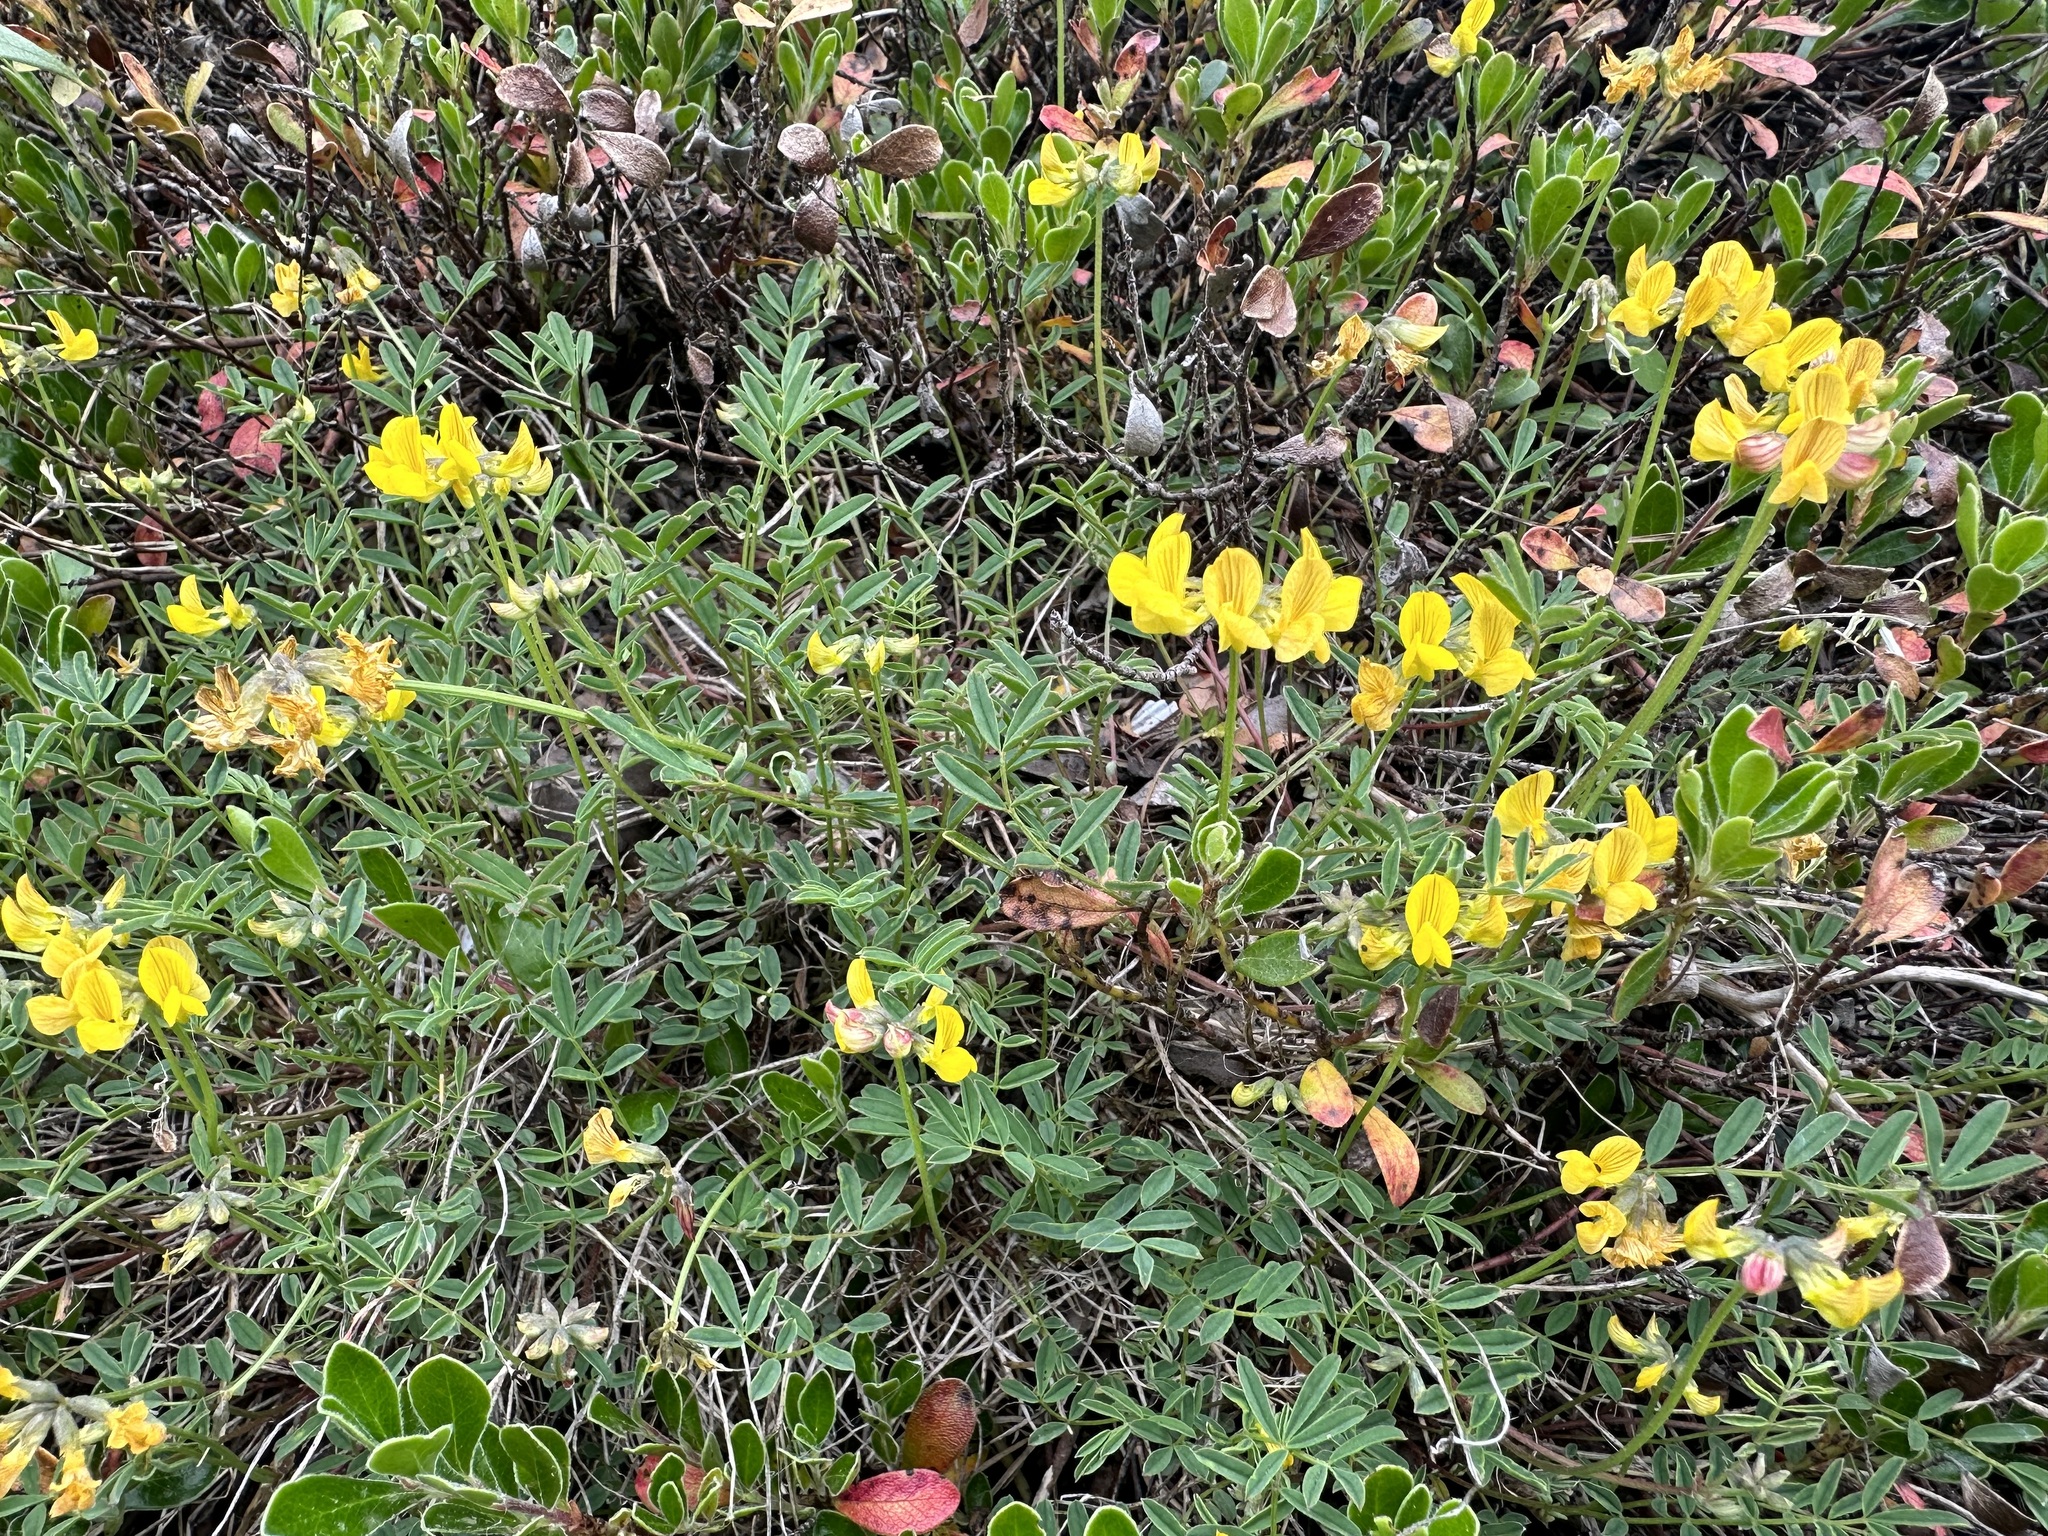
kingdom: Plantae
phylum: Tracheophyta
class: Magnoliopsida
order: Fabales
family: Fabaceae
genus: Hippocrepis
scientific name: Hippocrepis comosa
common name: Horseshoe vetch
